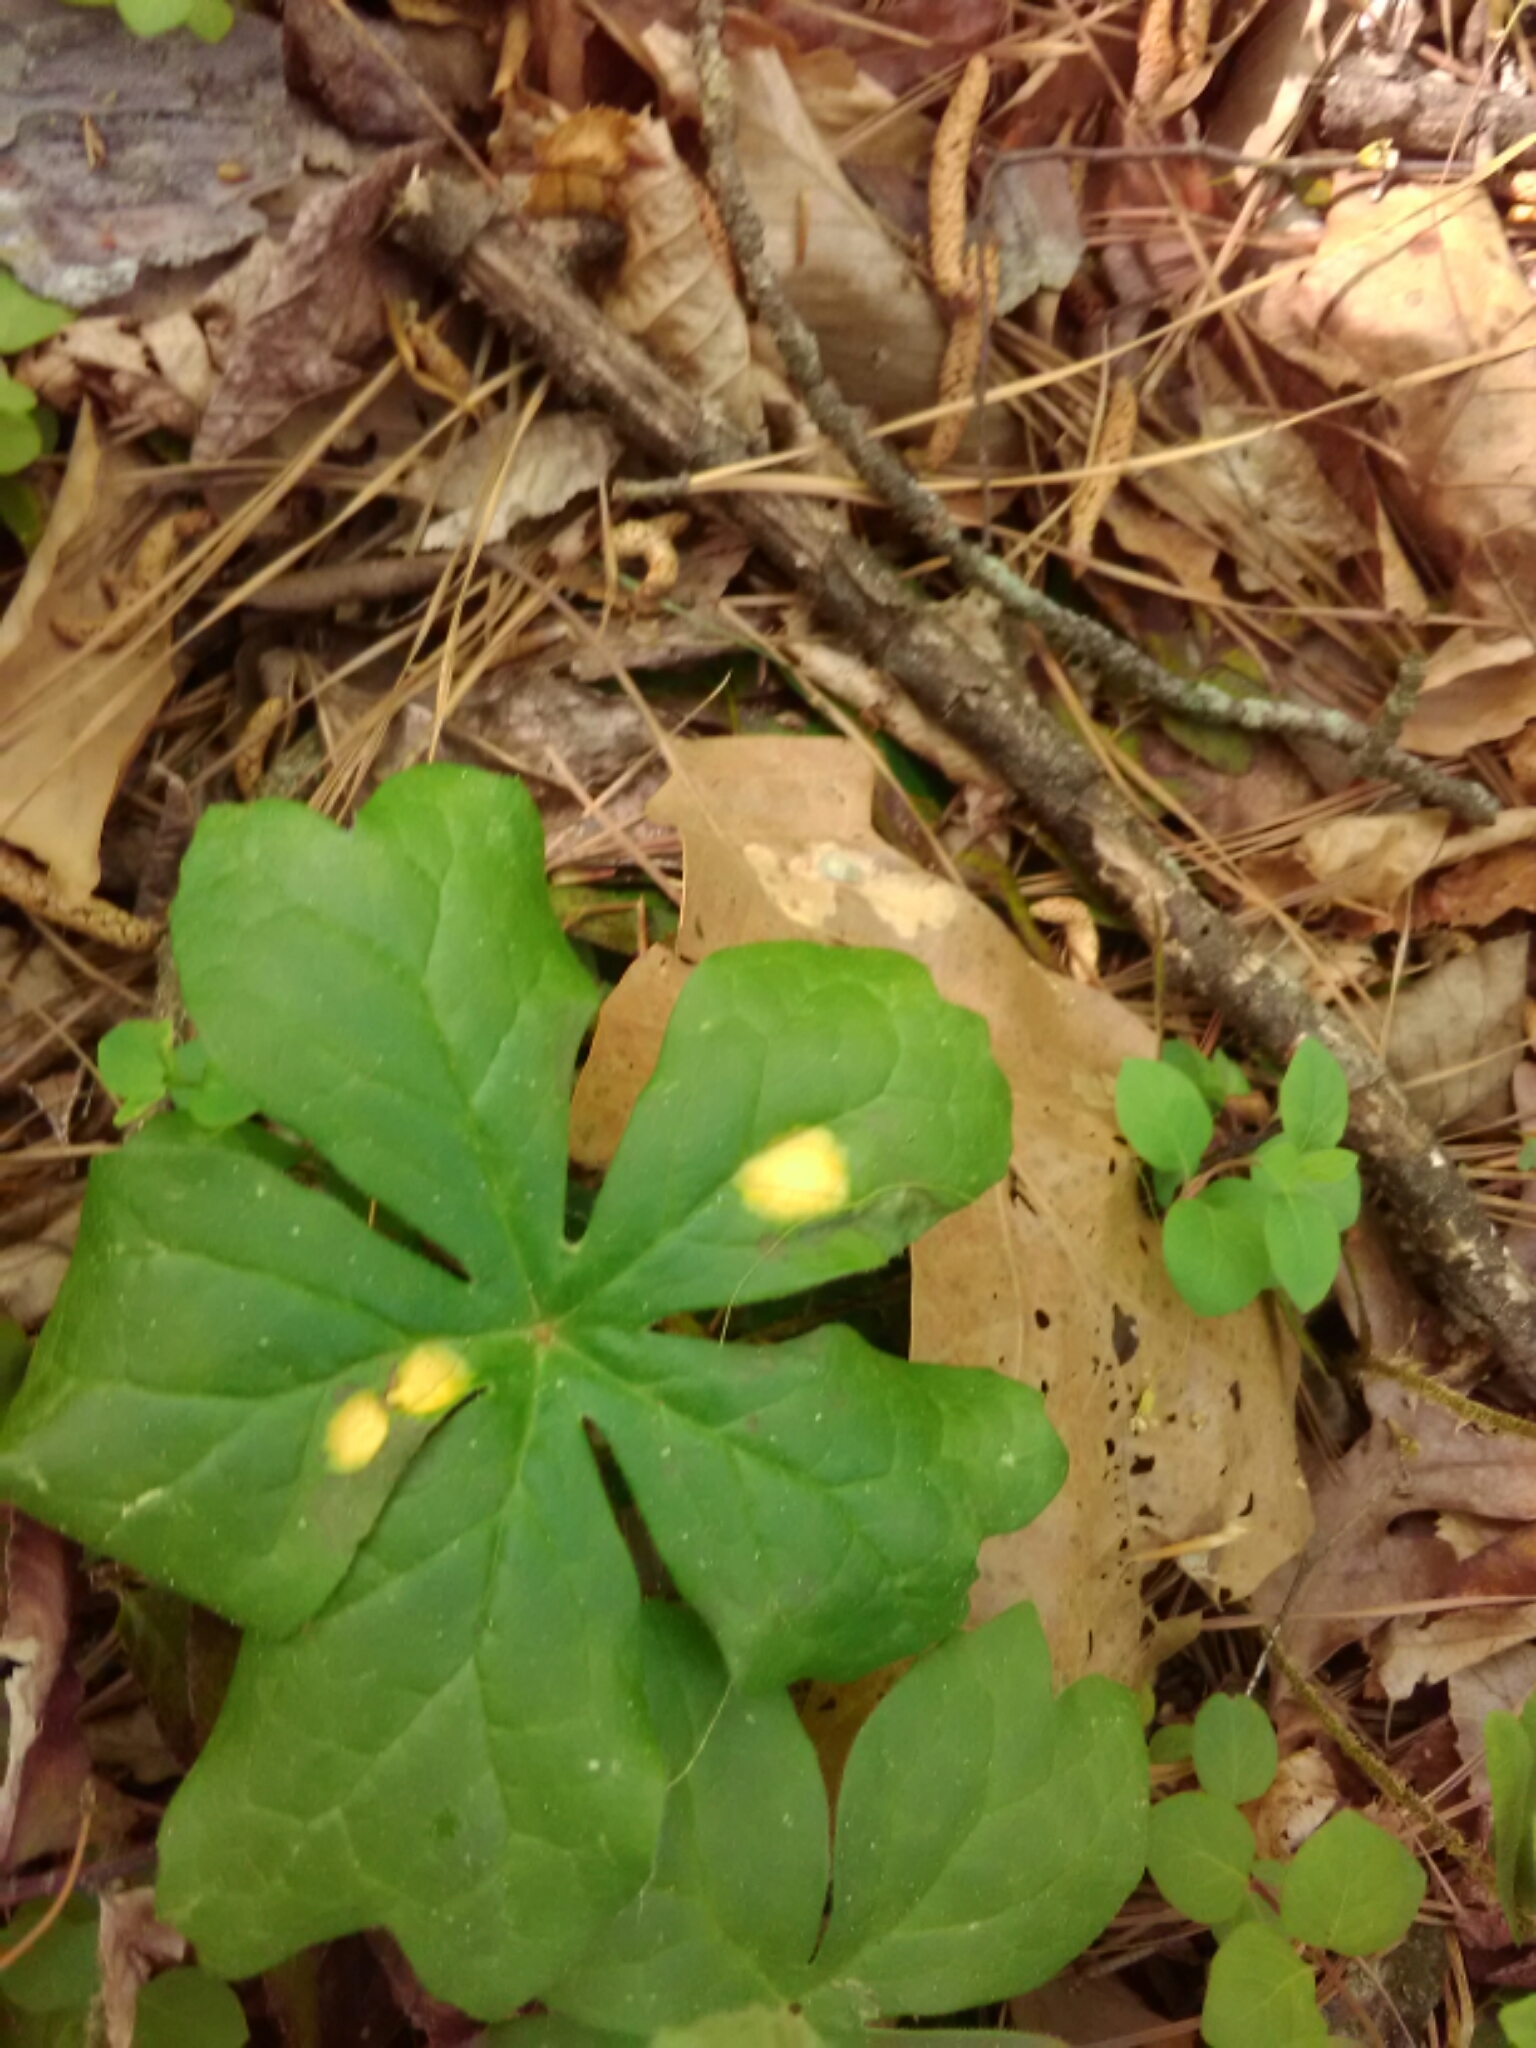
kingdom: Fungi
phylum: Basidiomycota
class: Pucciniomycetes
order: Pucciniales
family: Pucciniaceae
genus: Puccinia
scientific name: Puccinia podophylli
